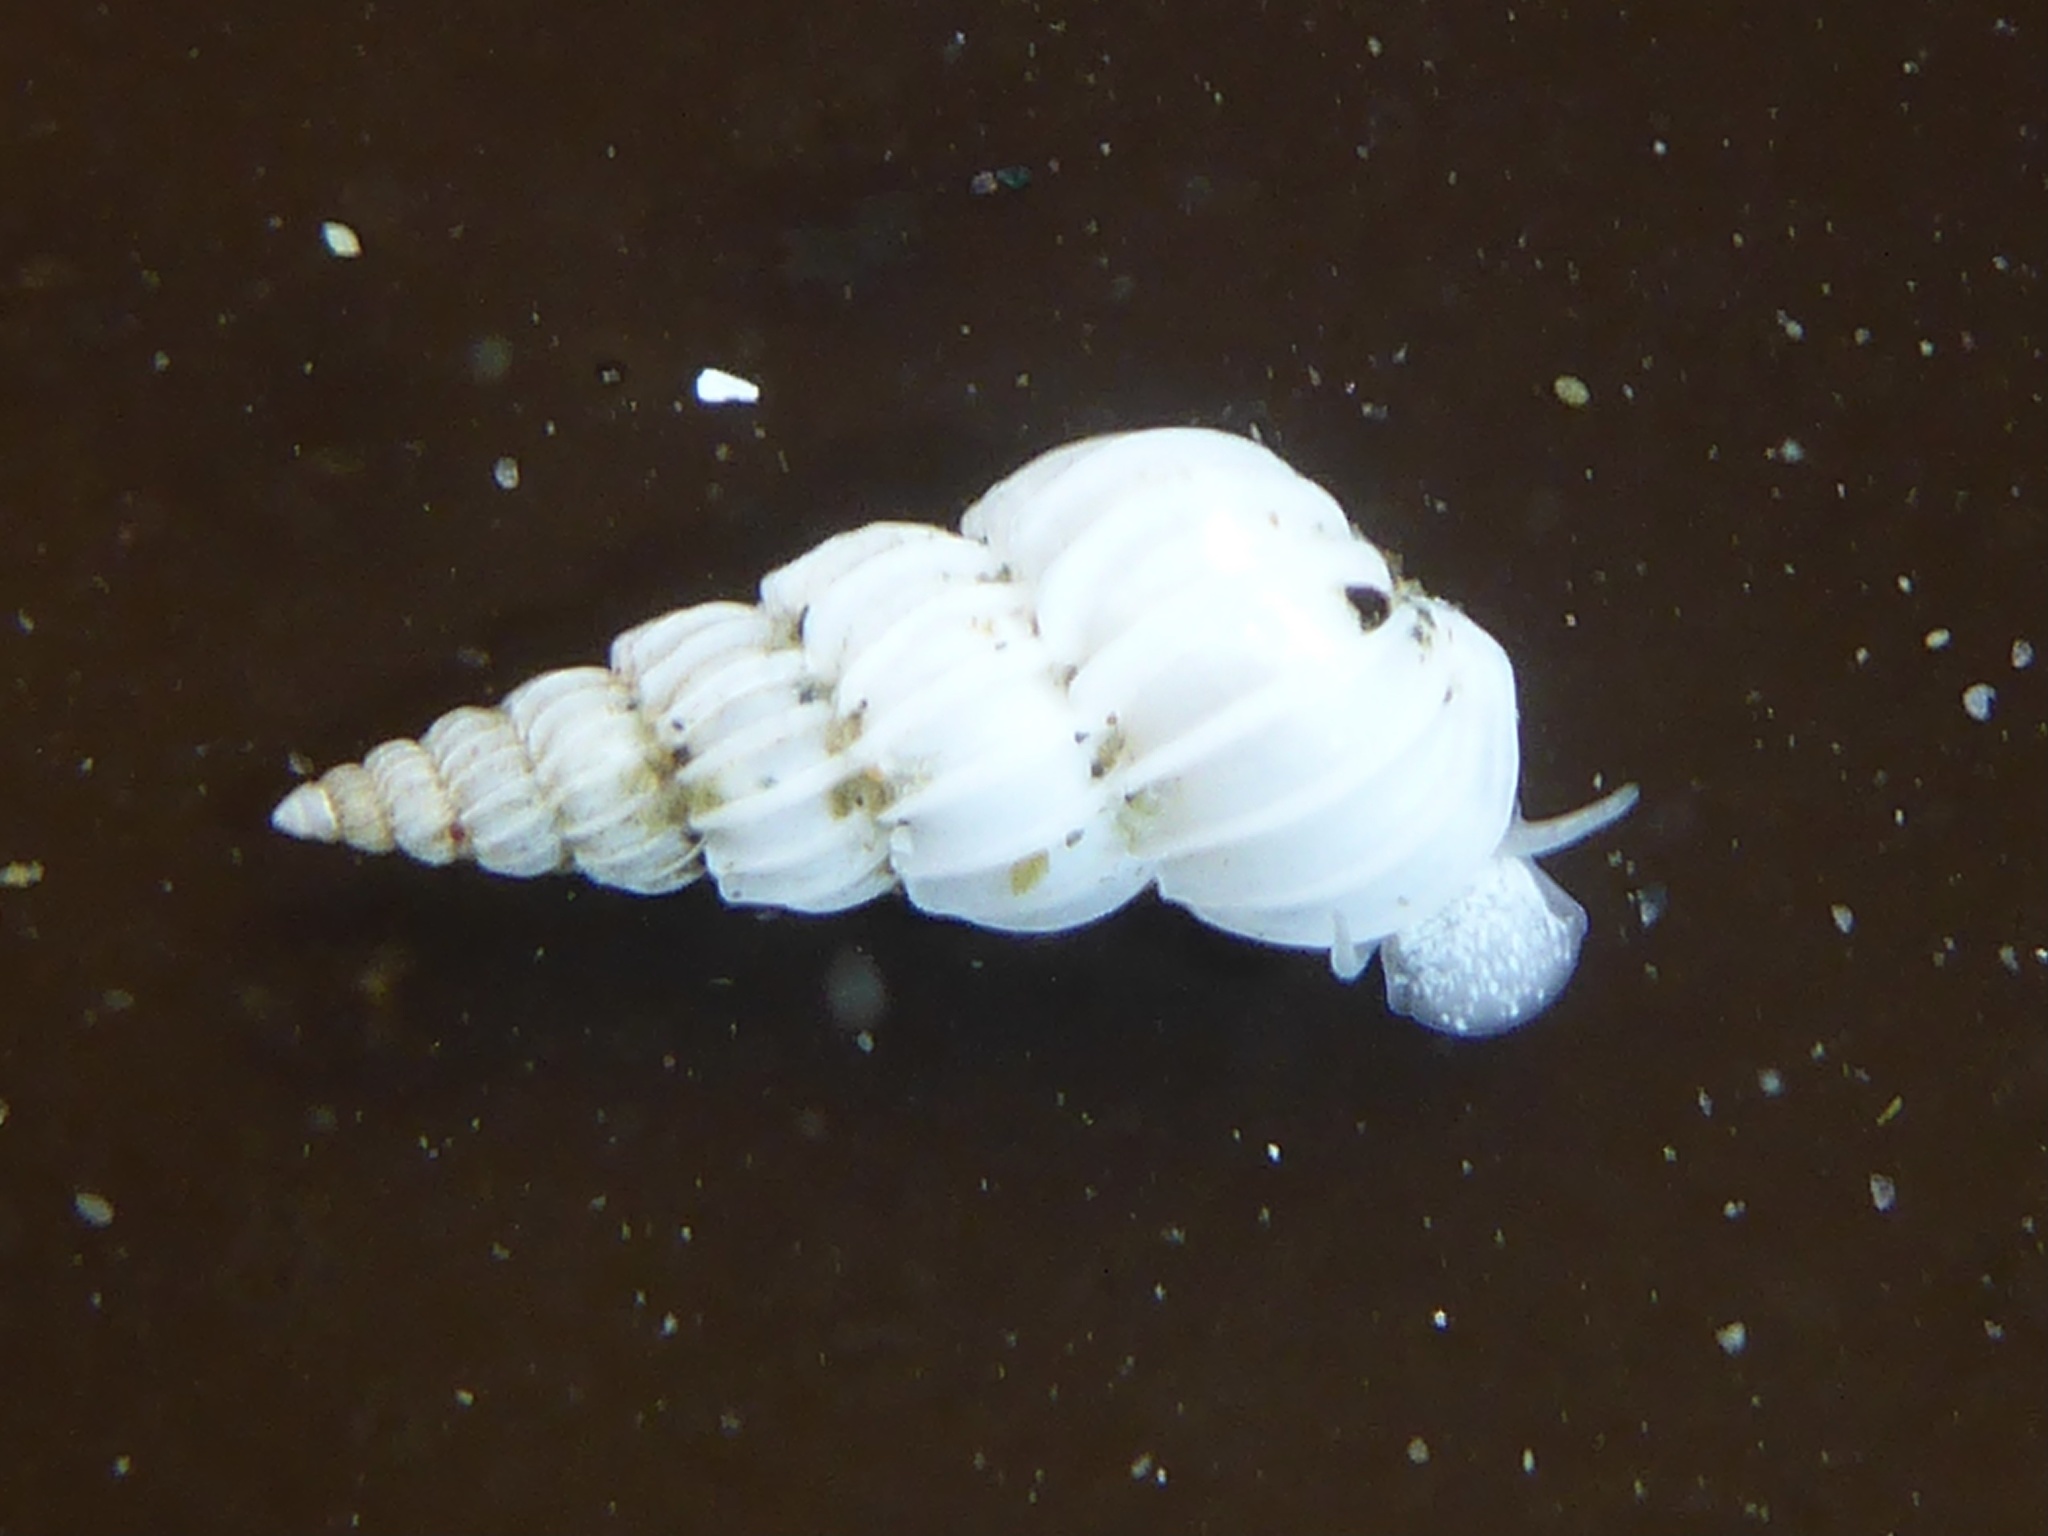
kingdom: Animalia
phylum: Mollusca
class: Gastropoda
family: Epitoniidae
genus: Epitonium
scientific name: Epitonium tinctum
